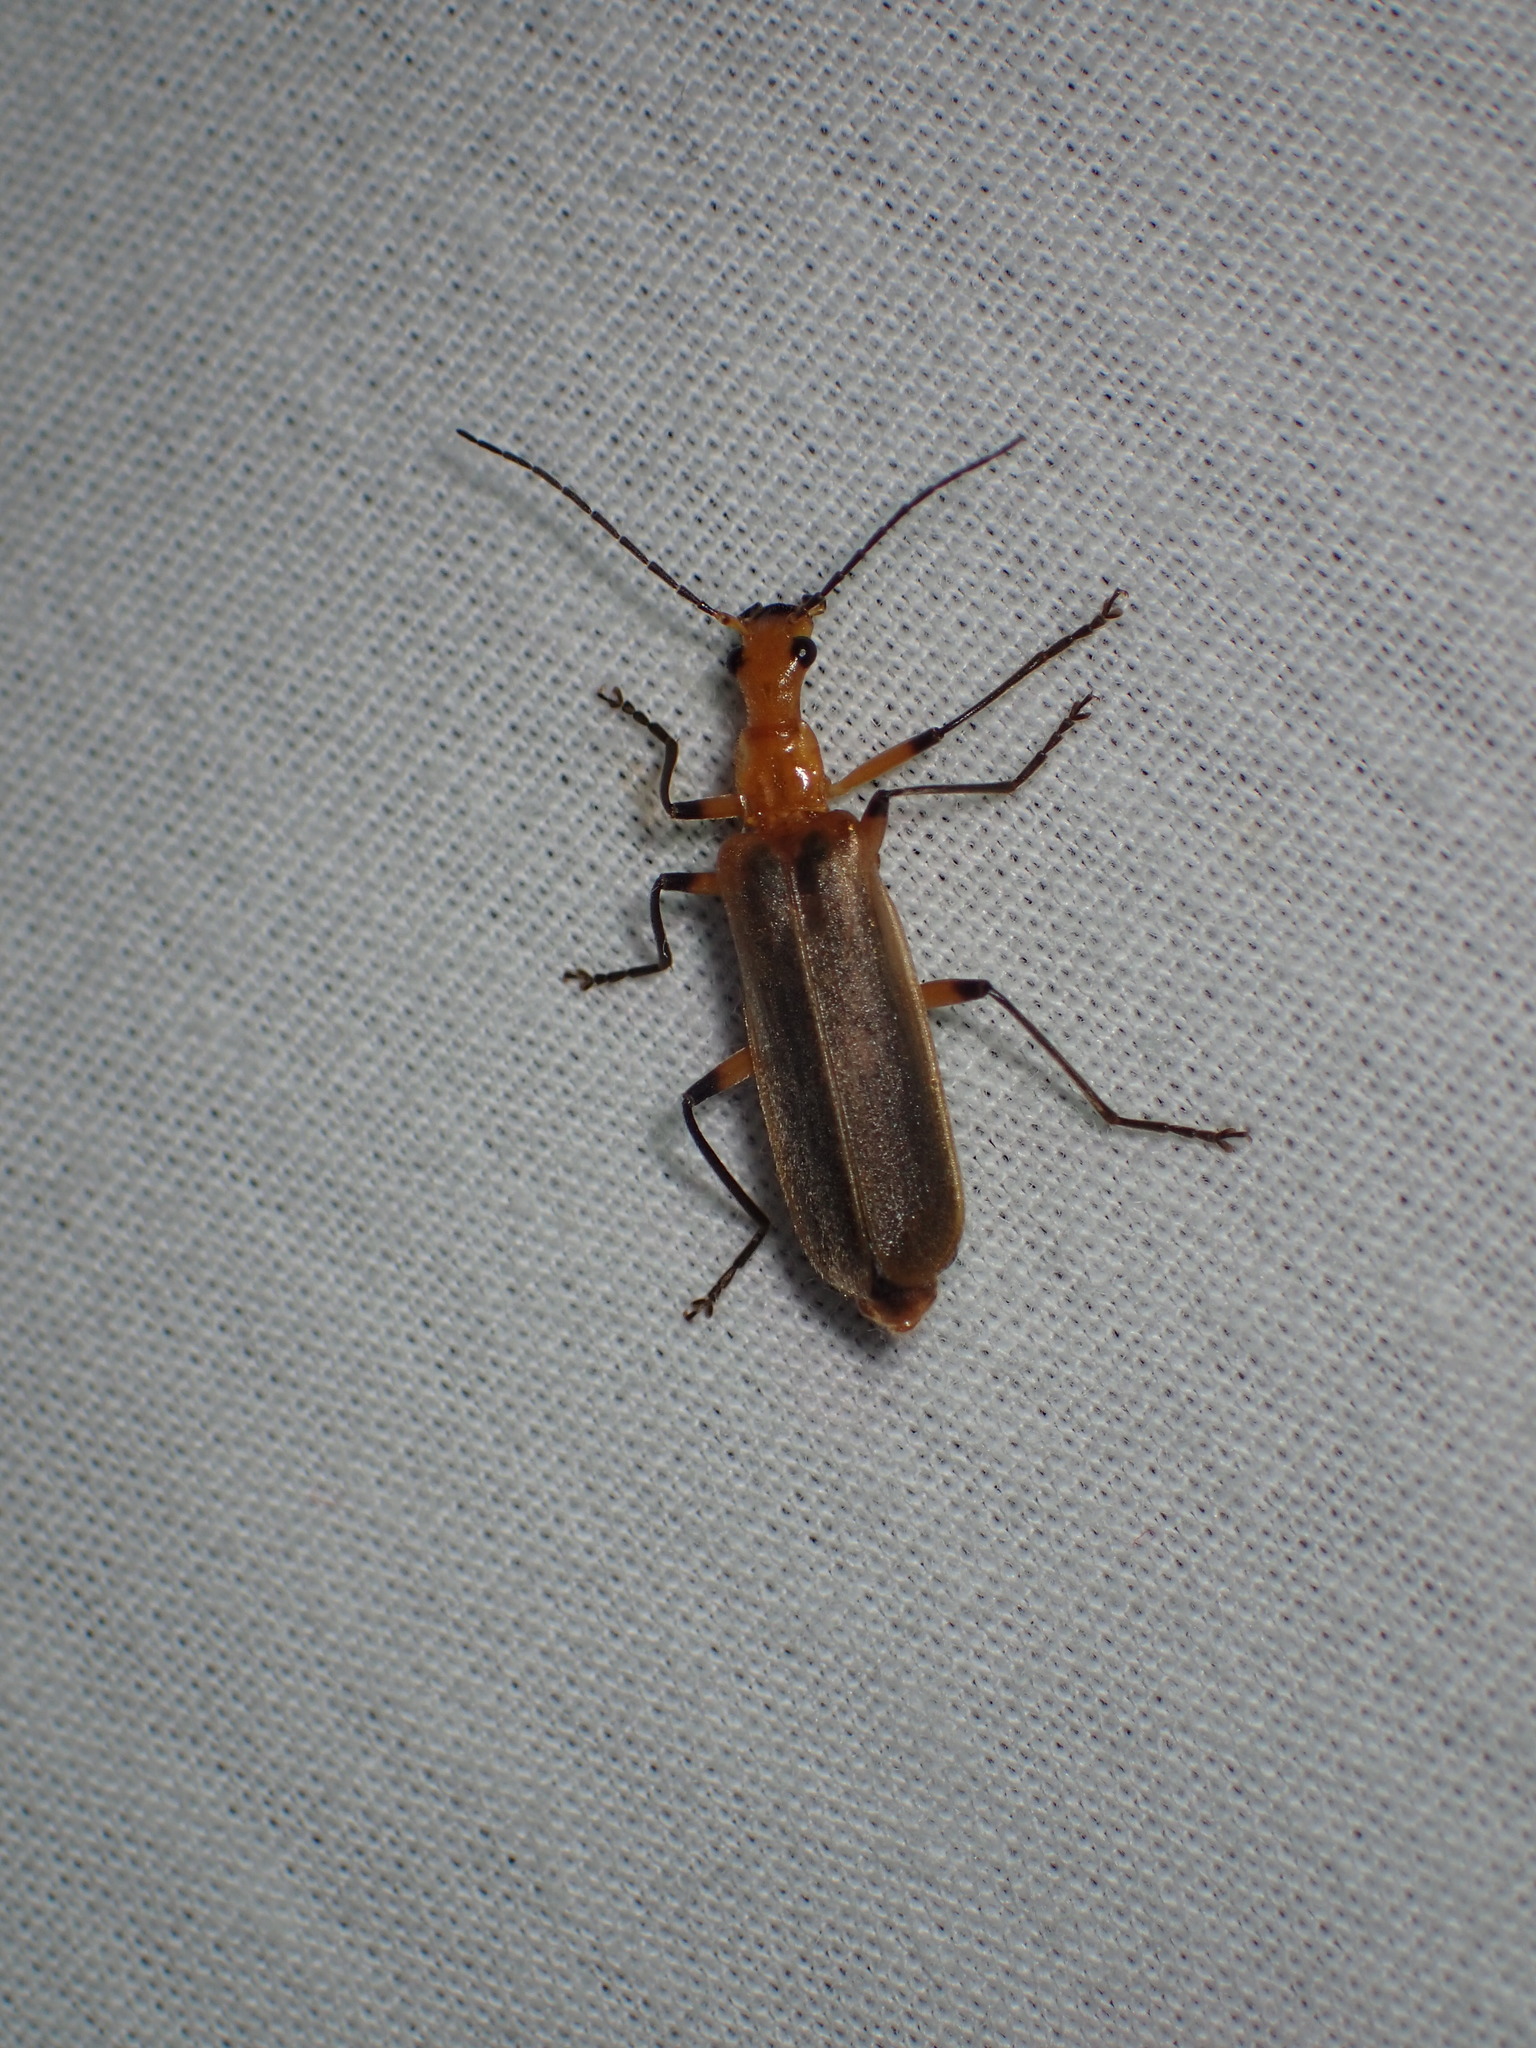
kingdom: Animalia
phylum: Arthropoda
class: Insecta
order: Coleoptera
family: Cantharidae
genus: Podabrus
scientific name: Podabrus protensus
